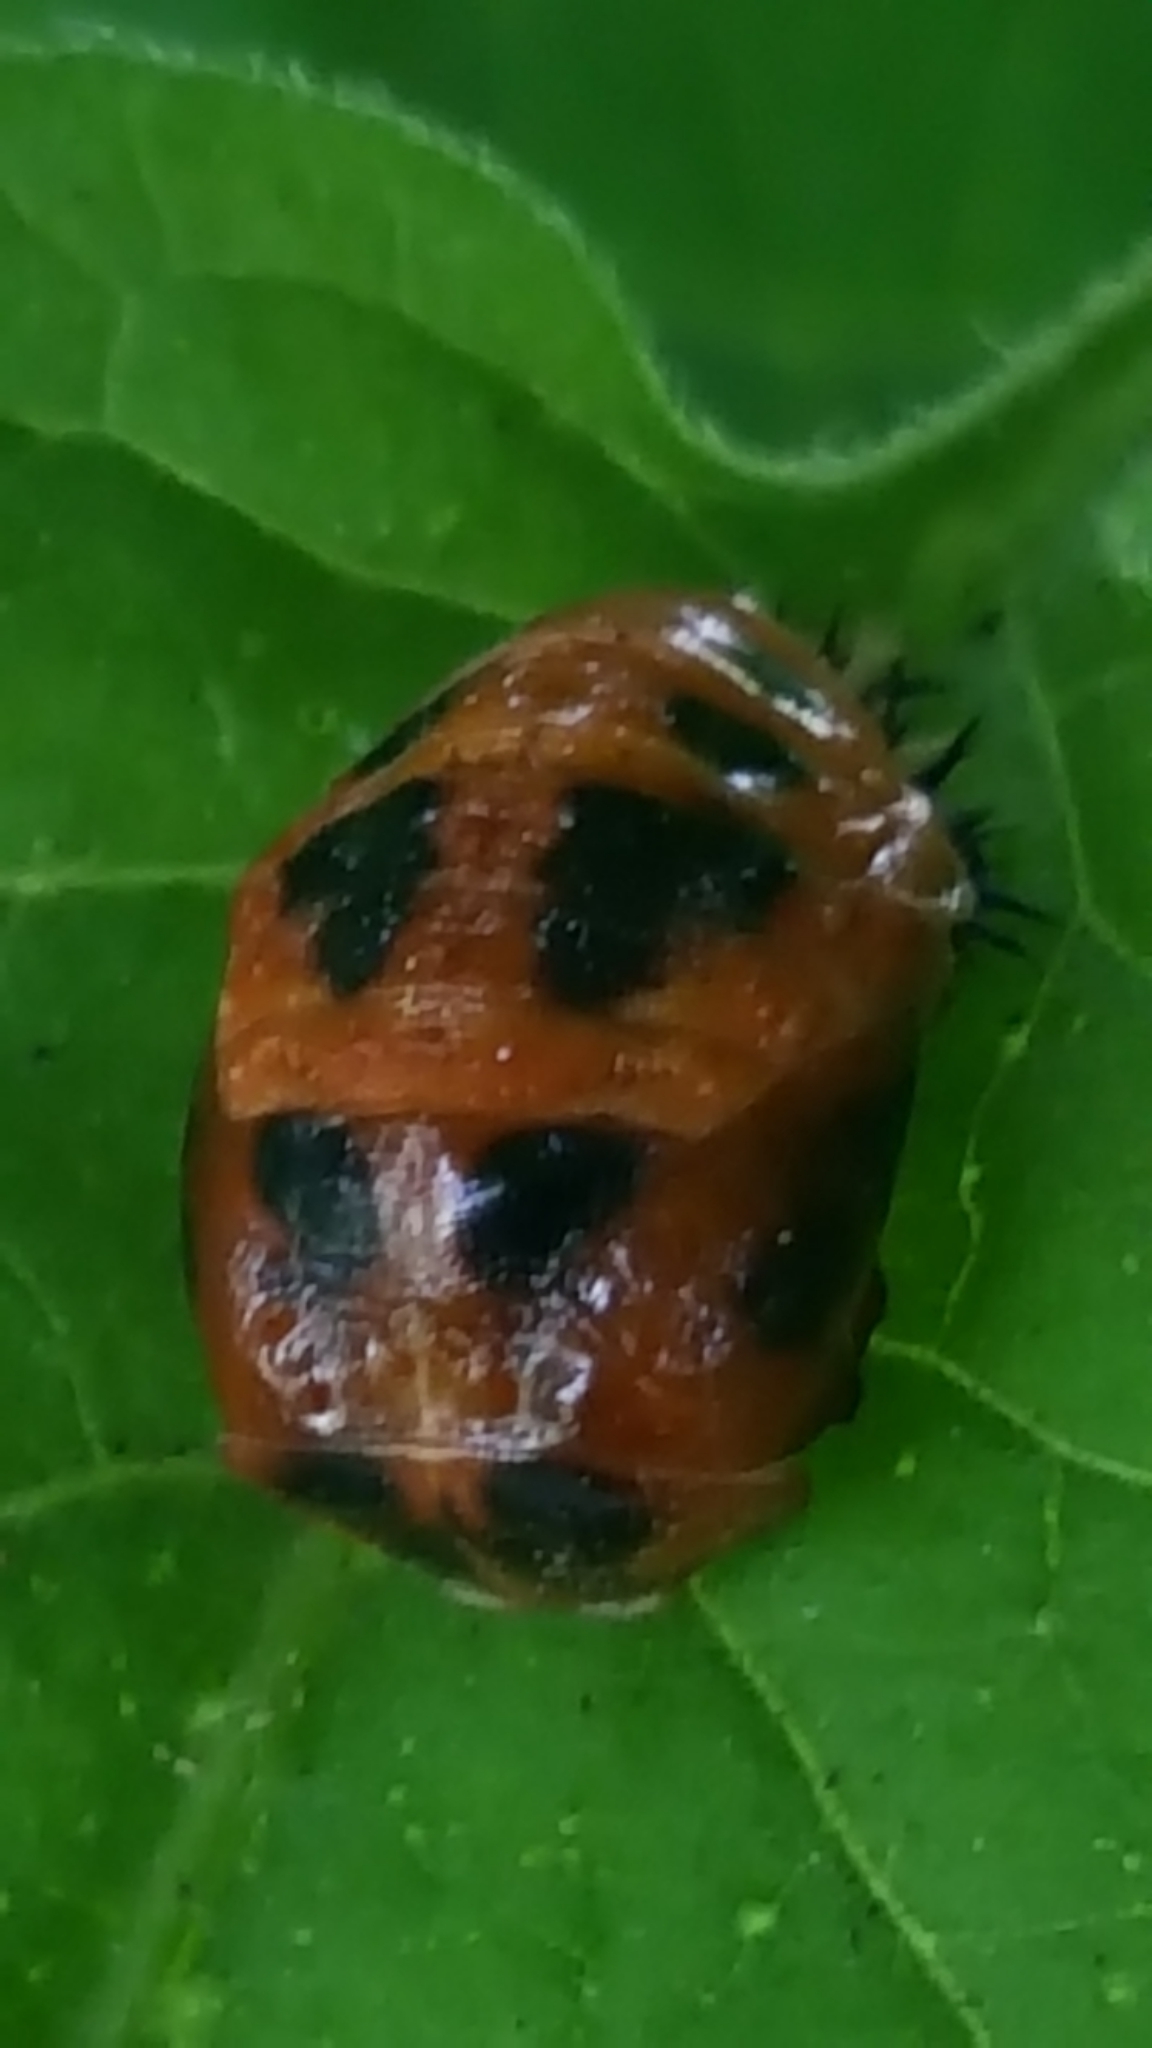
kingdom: Animalia
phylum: Arthropoda
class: Insecta
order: Coleoptera
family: Coccinellidae
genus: Harmonia
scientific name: Harmonia axyridis
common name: Harlequin ladybird
